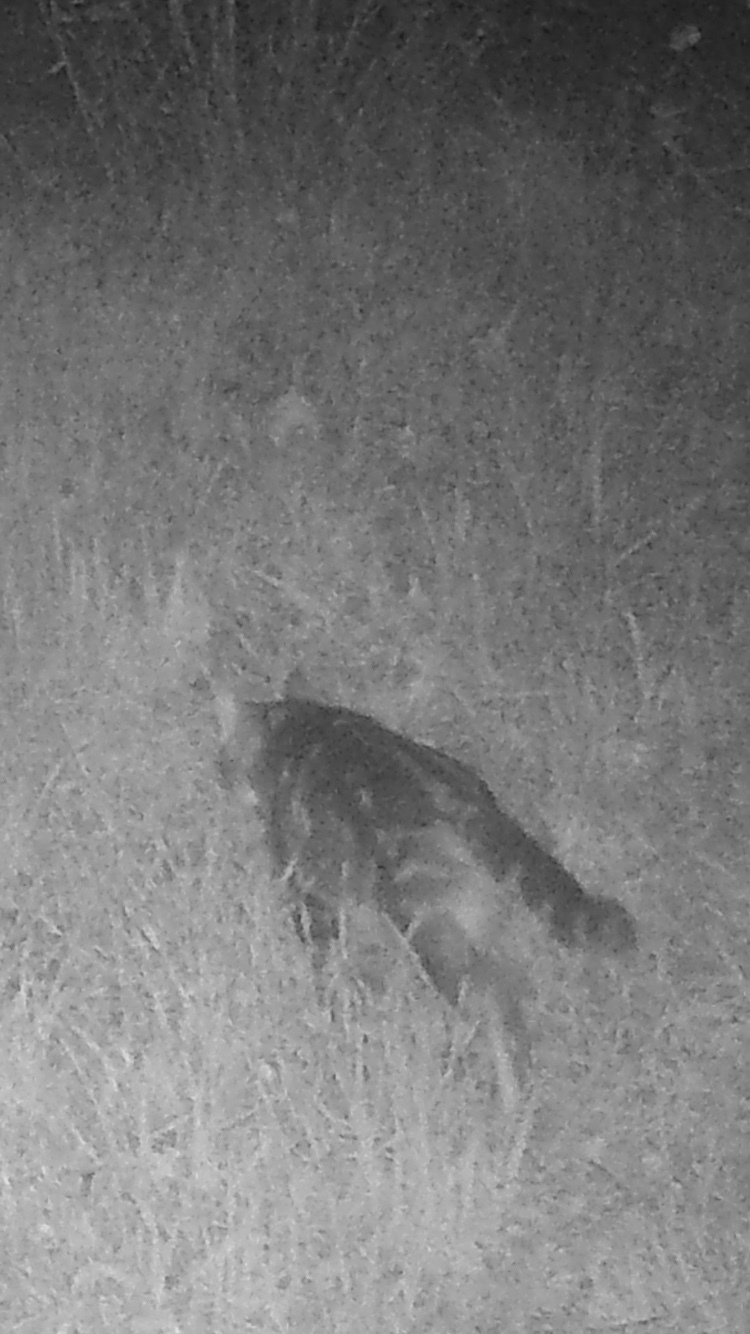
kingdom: Animalia
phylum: Chordata
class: Mammalia
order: Carnivora
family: Felidae
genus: Felis
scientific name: Felis catus
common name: Domestic cat
